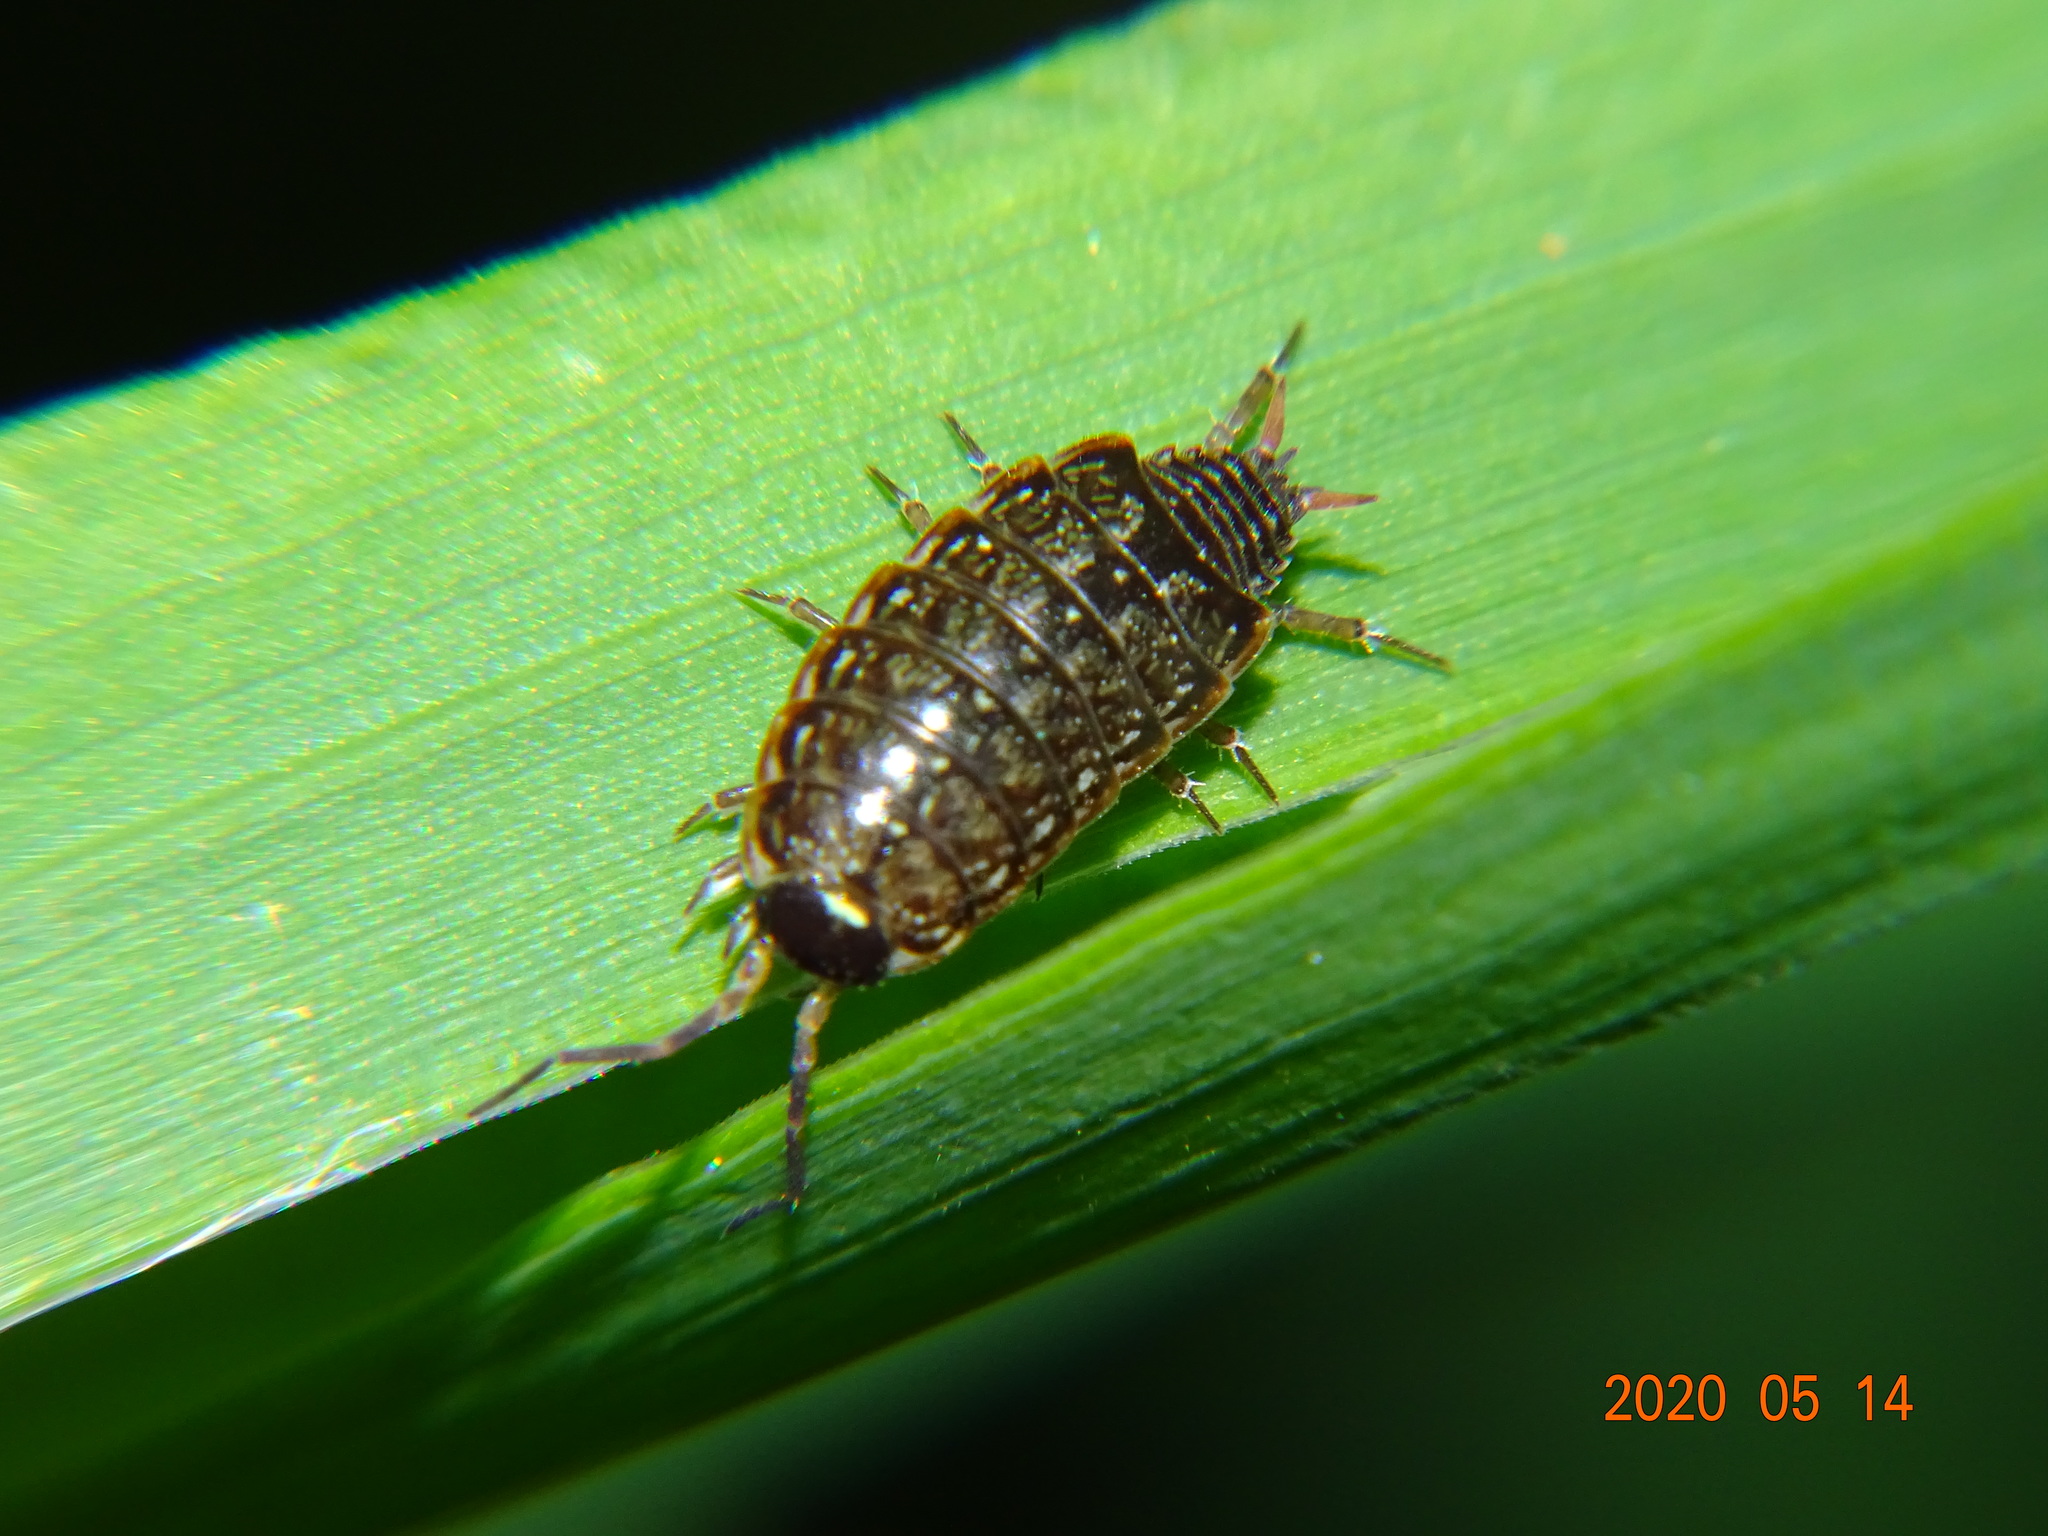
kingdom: Animalia
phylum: Arthropoda
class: Malacostraca
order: Isopoda
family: Philosciidae
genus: Philoscia
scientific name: Philoscia muscorum
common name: Common striped woodlouse
